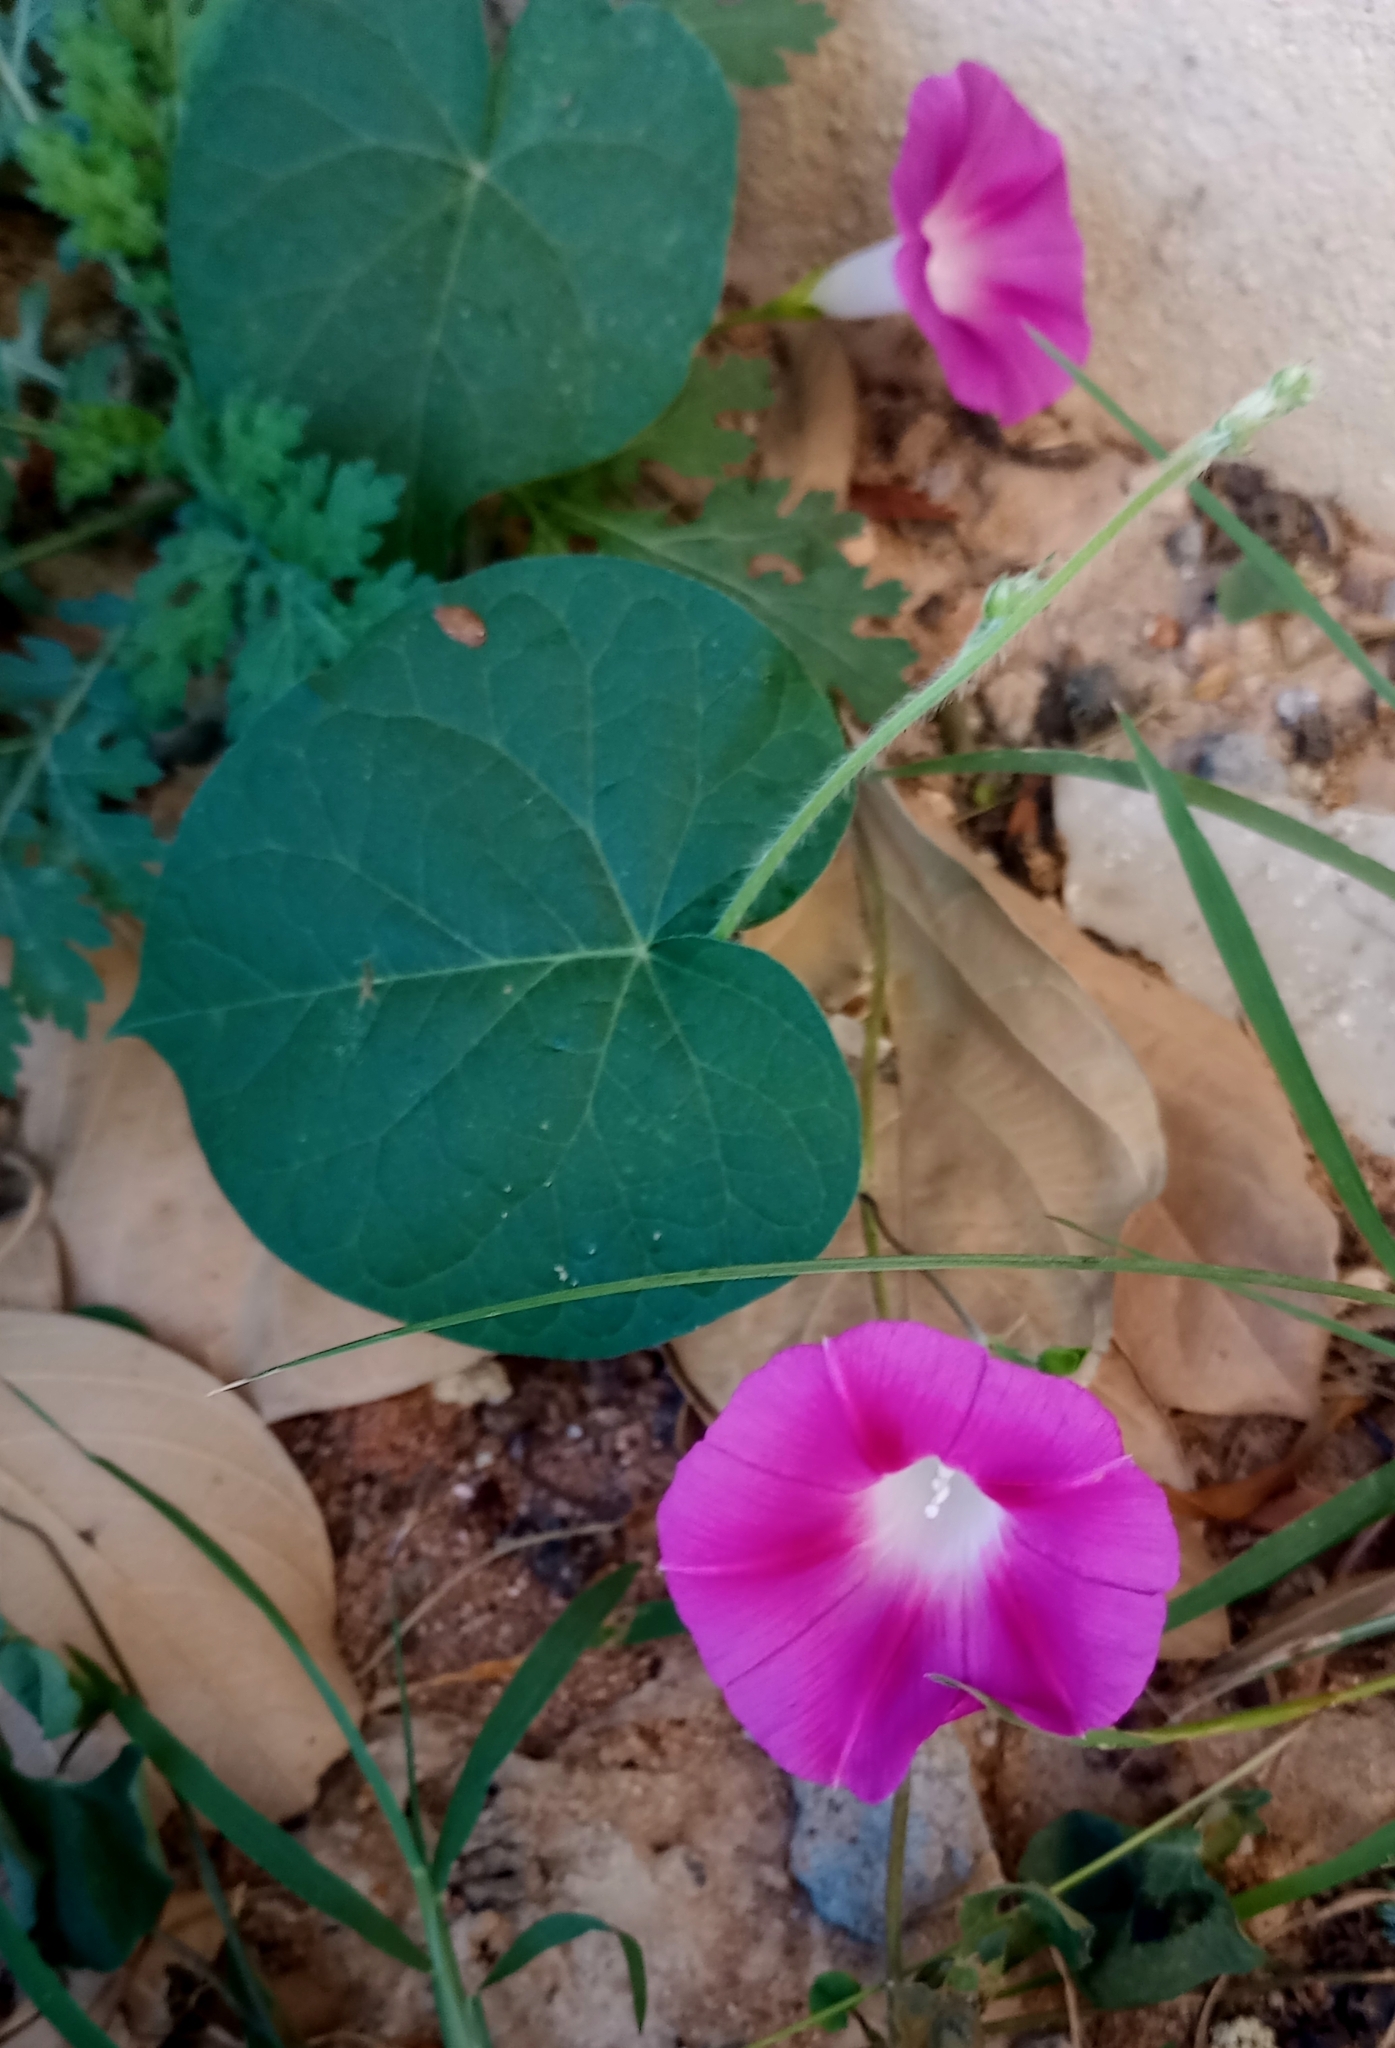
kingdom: Plantae
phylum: Tracheophyta
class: Magnoliopsida
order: Solanales
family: Convolvulaceae
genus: Ipomoea
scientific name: Ipomoea purpurea
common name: Common morning-glory
